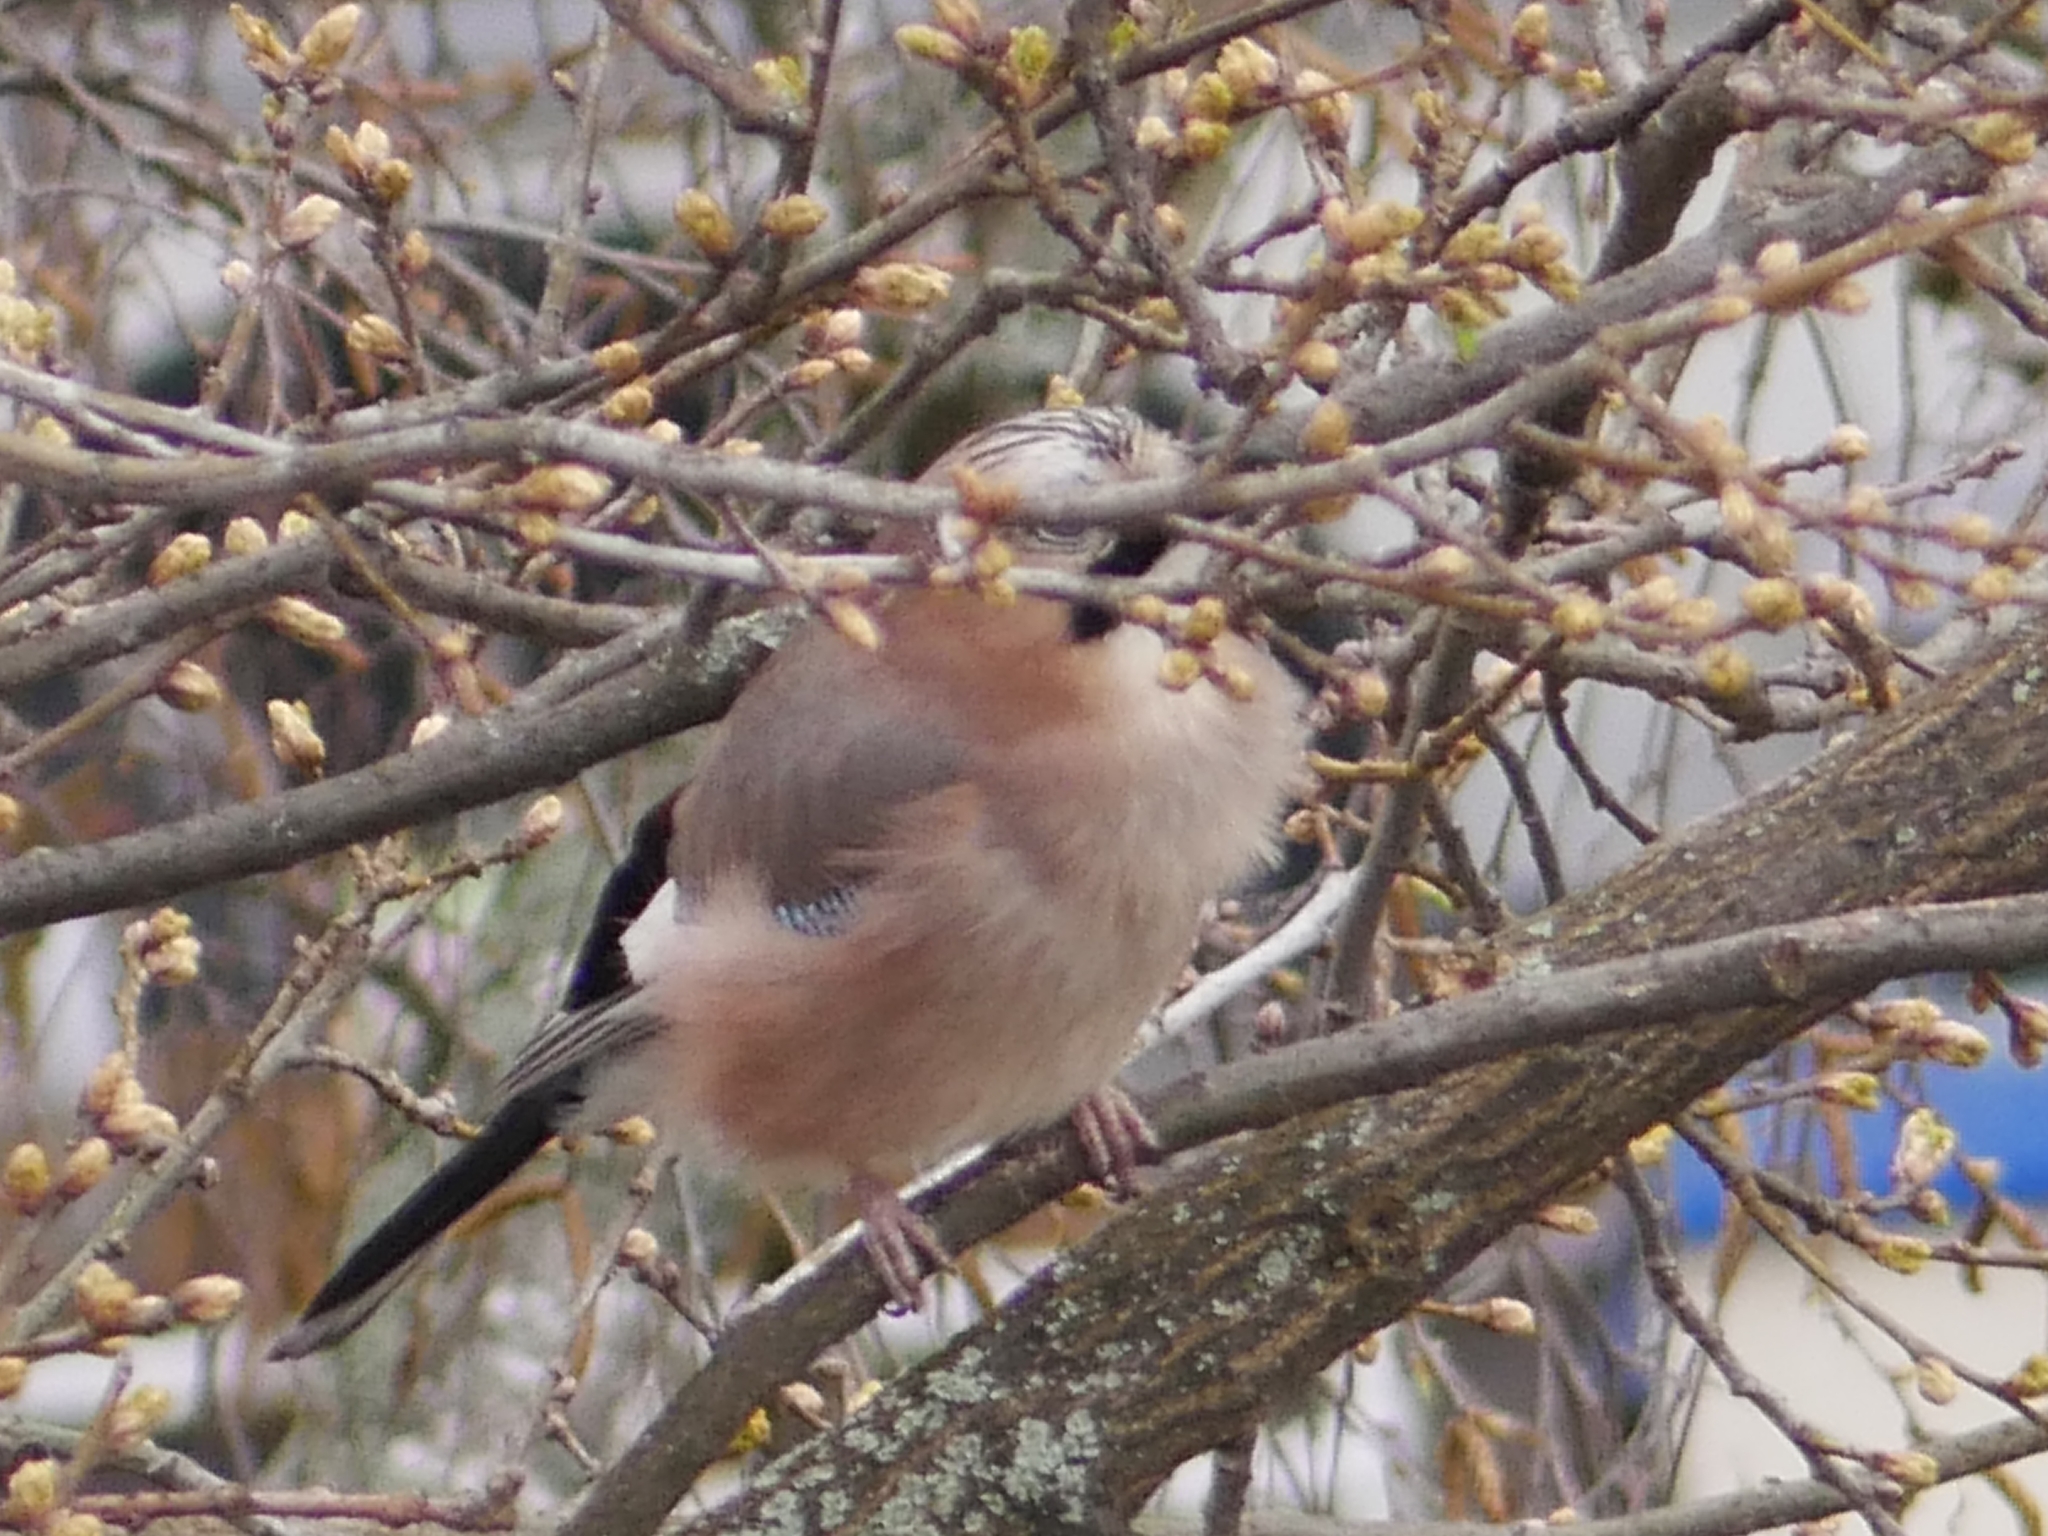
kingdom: Animalia
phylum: Chordata
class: Aves
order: Passeriformes
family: Corvidae
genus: Garrulus
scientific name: Garrulus glandarius
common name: Eurasian jay
